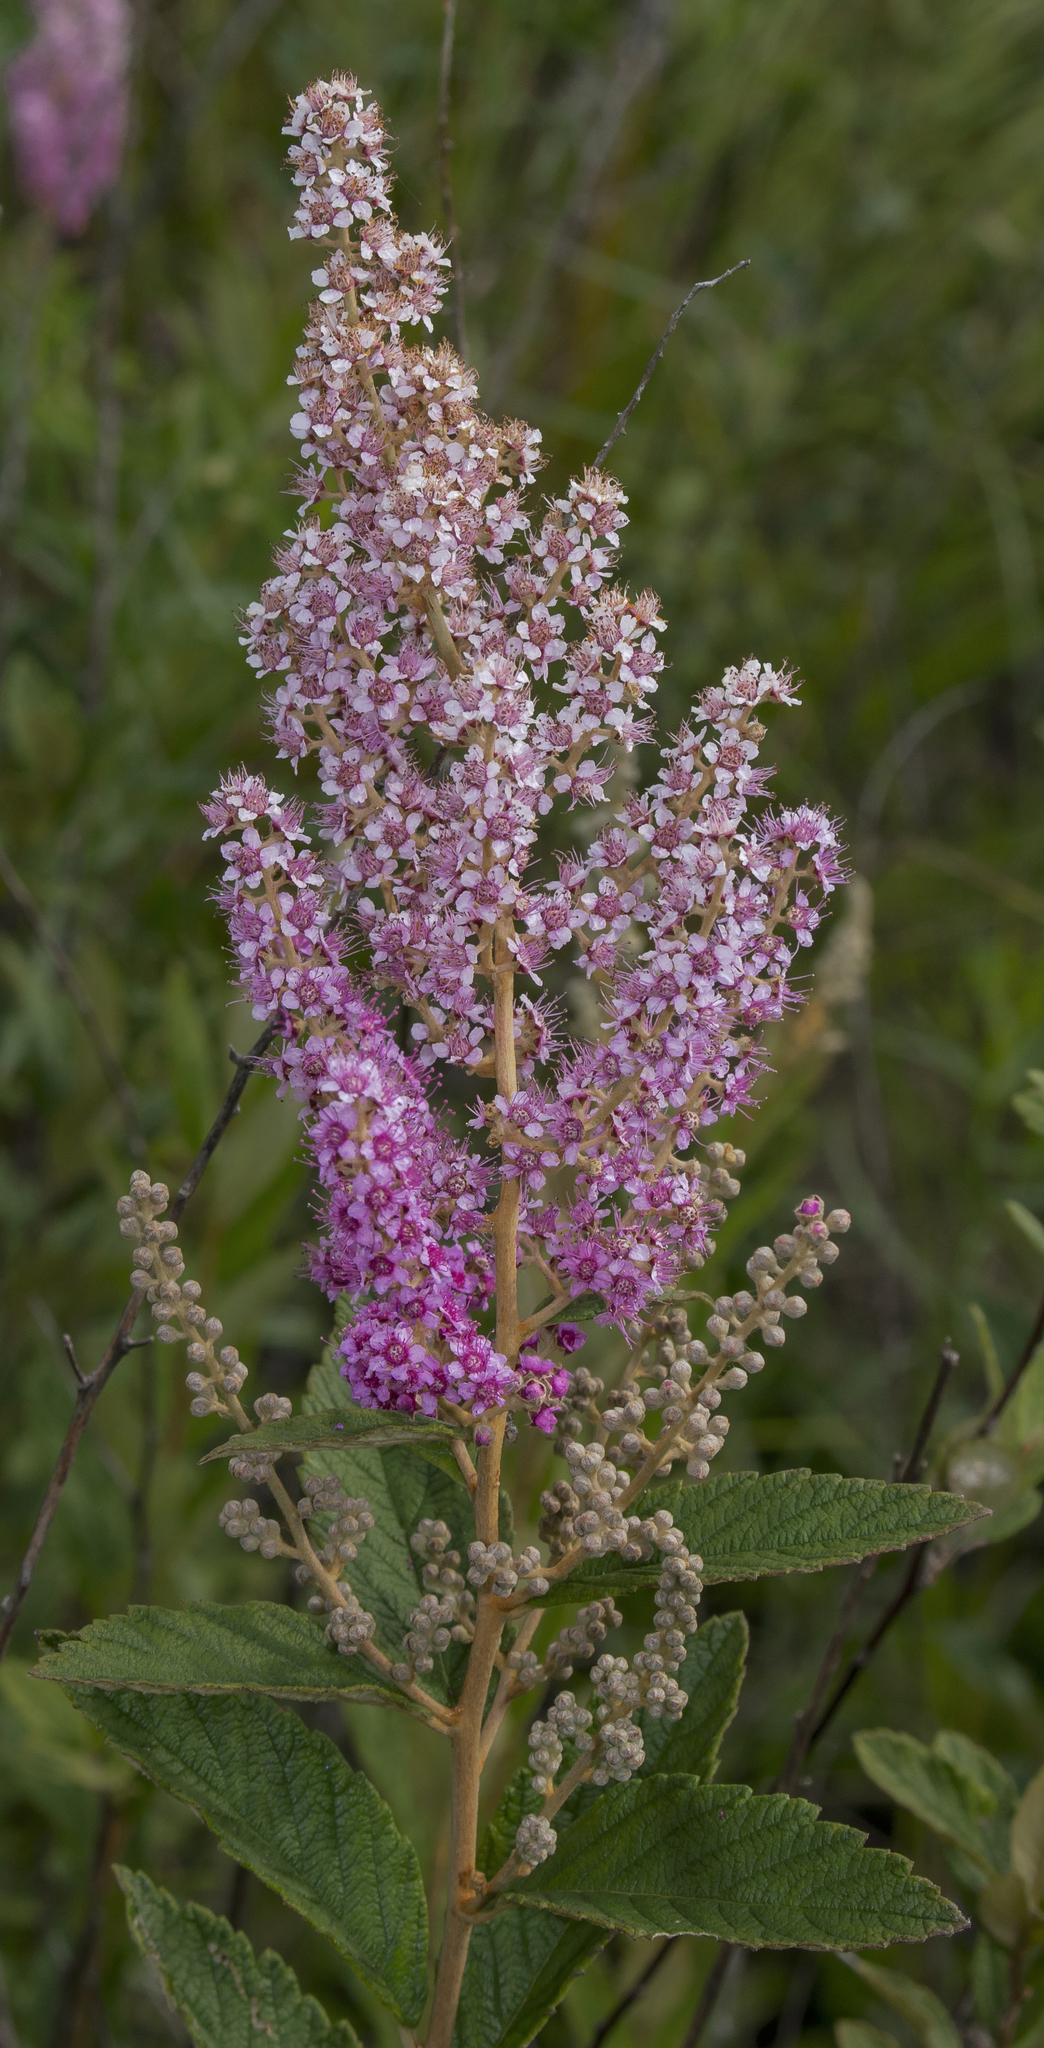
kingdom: Plantae
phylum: Tracheophyta
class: Magnoliopsida
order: Rosales
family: Rosaceae
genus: Spiraea
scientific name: Spiraea tomentosa
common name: Hardhack
